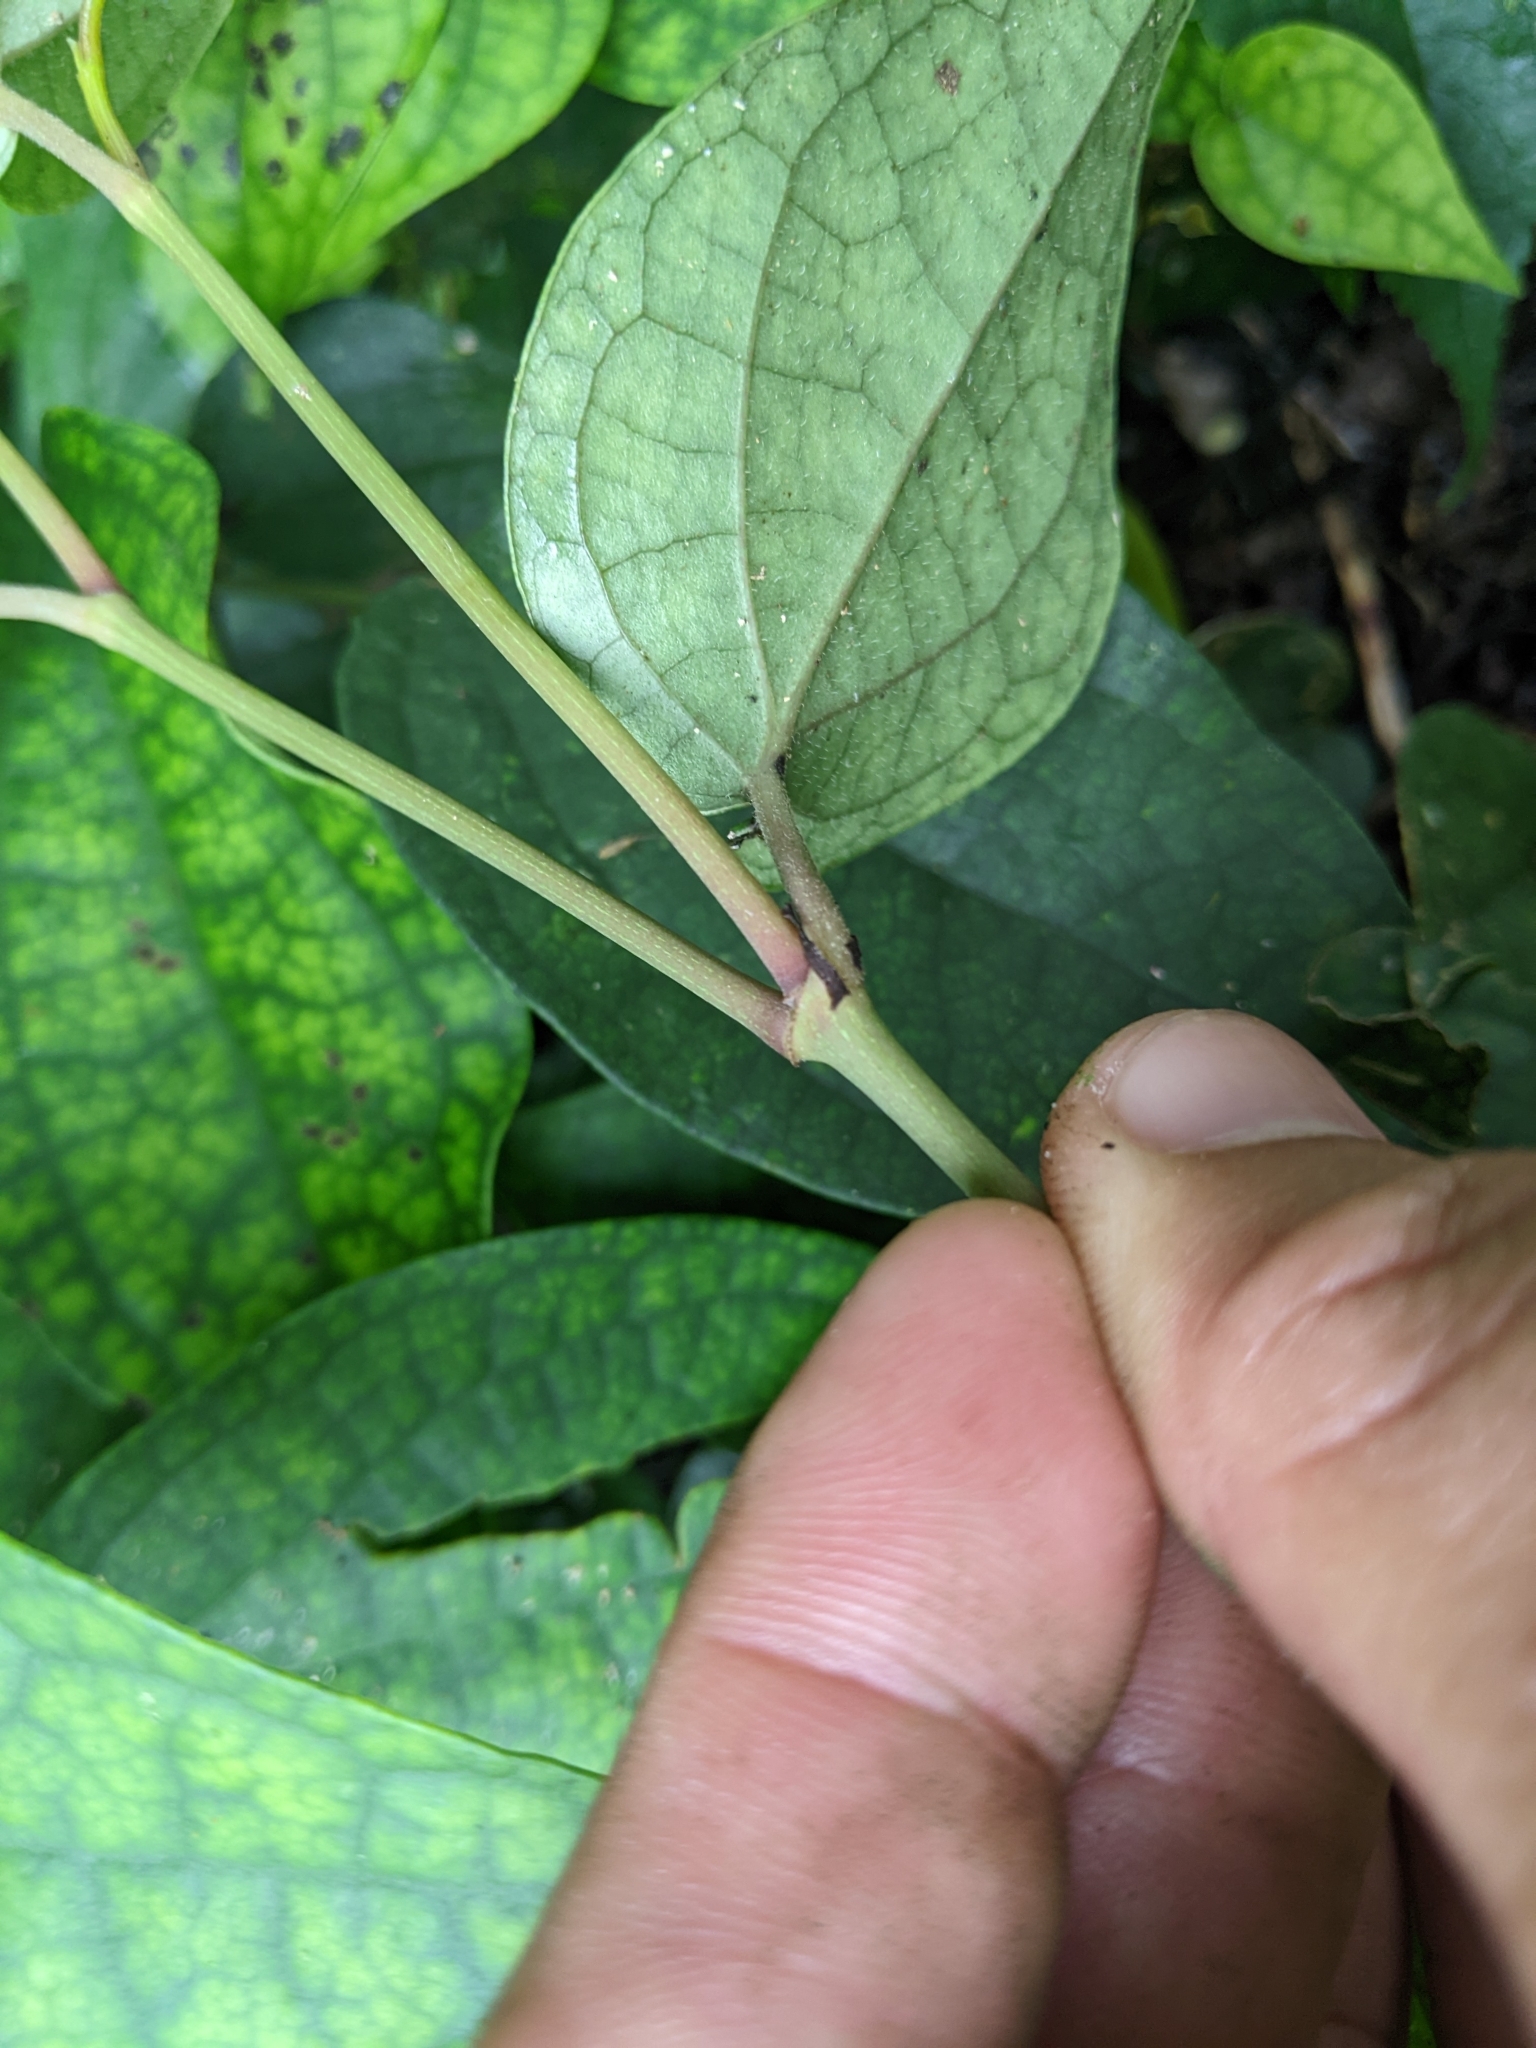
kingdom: Plantae
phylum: Tracheophyta
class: Magnoliopsida
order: Piperales
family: Piperaceae
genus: Piper
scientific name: Piper kadsura
